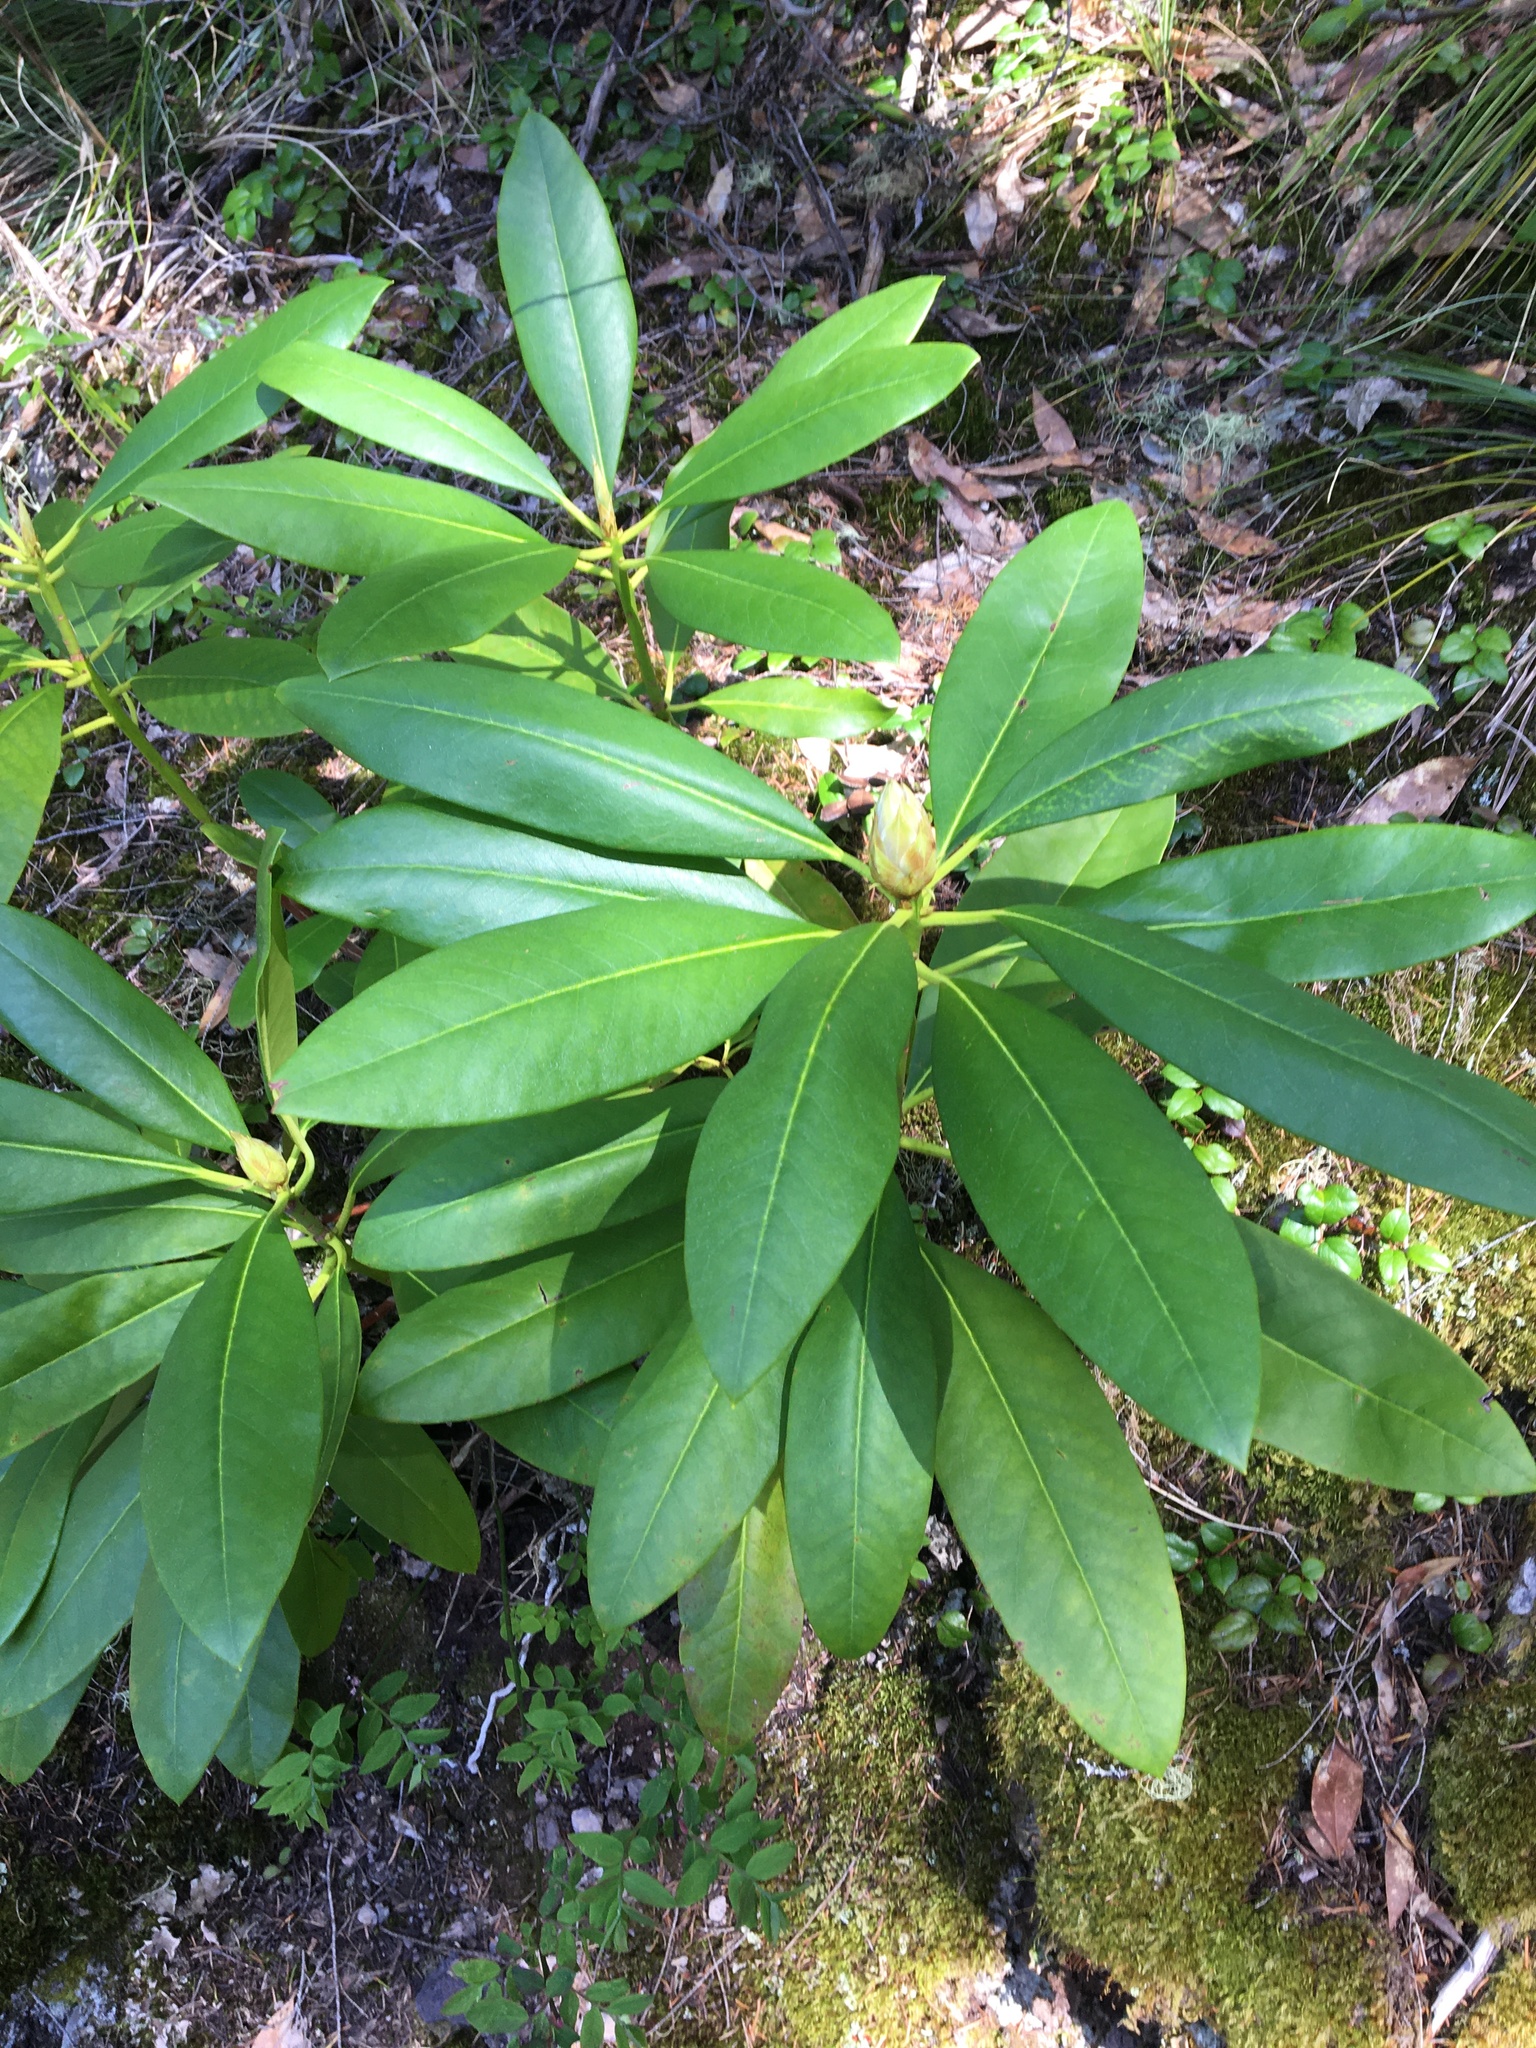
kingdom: Plantae
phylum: Tracheophyta
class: Magnoliopsida
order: Ericales
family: Ericaceae
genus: Rhododendron
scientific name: Rhododendron macrophyllum
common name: California rose bay
